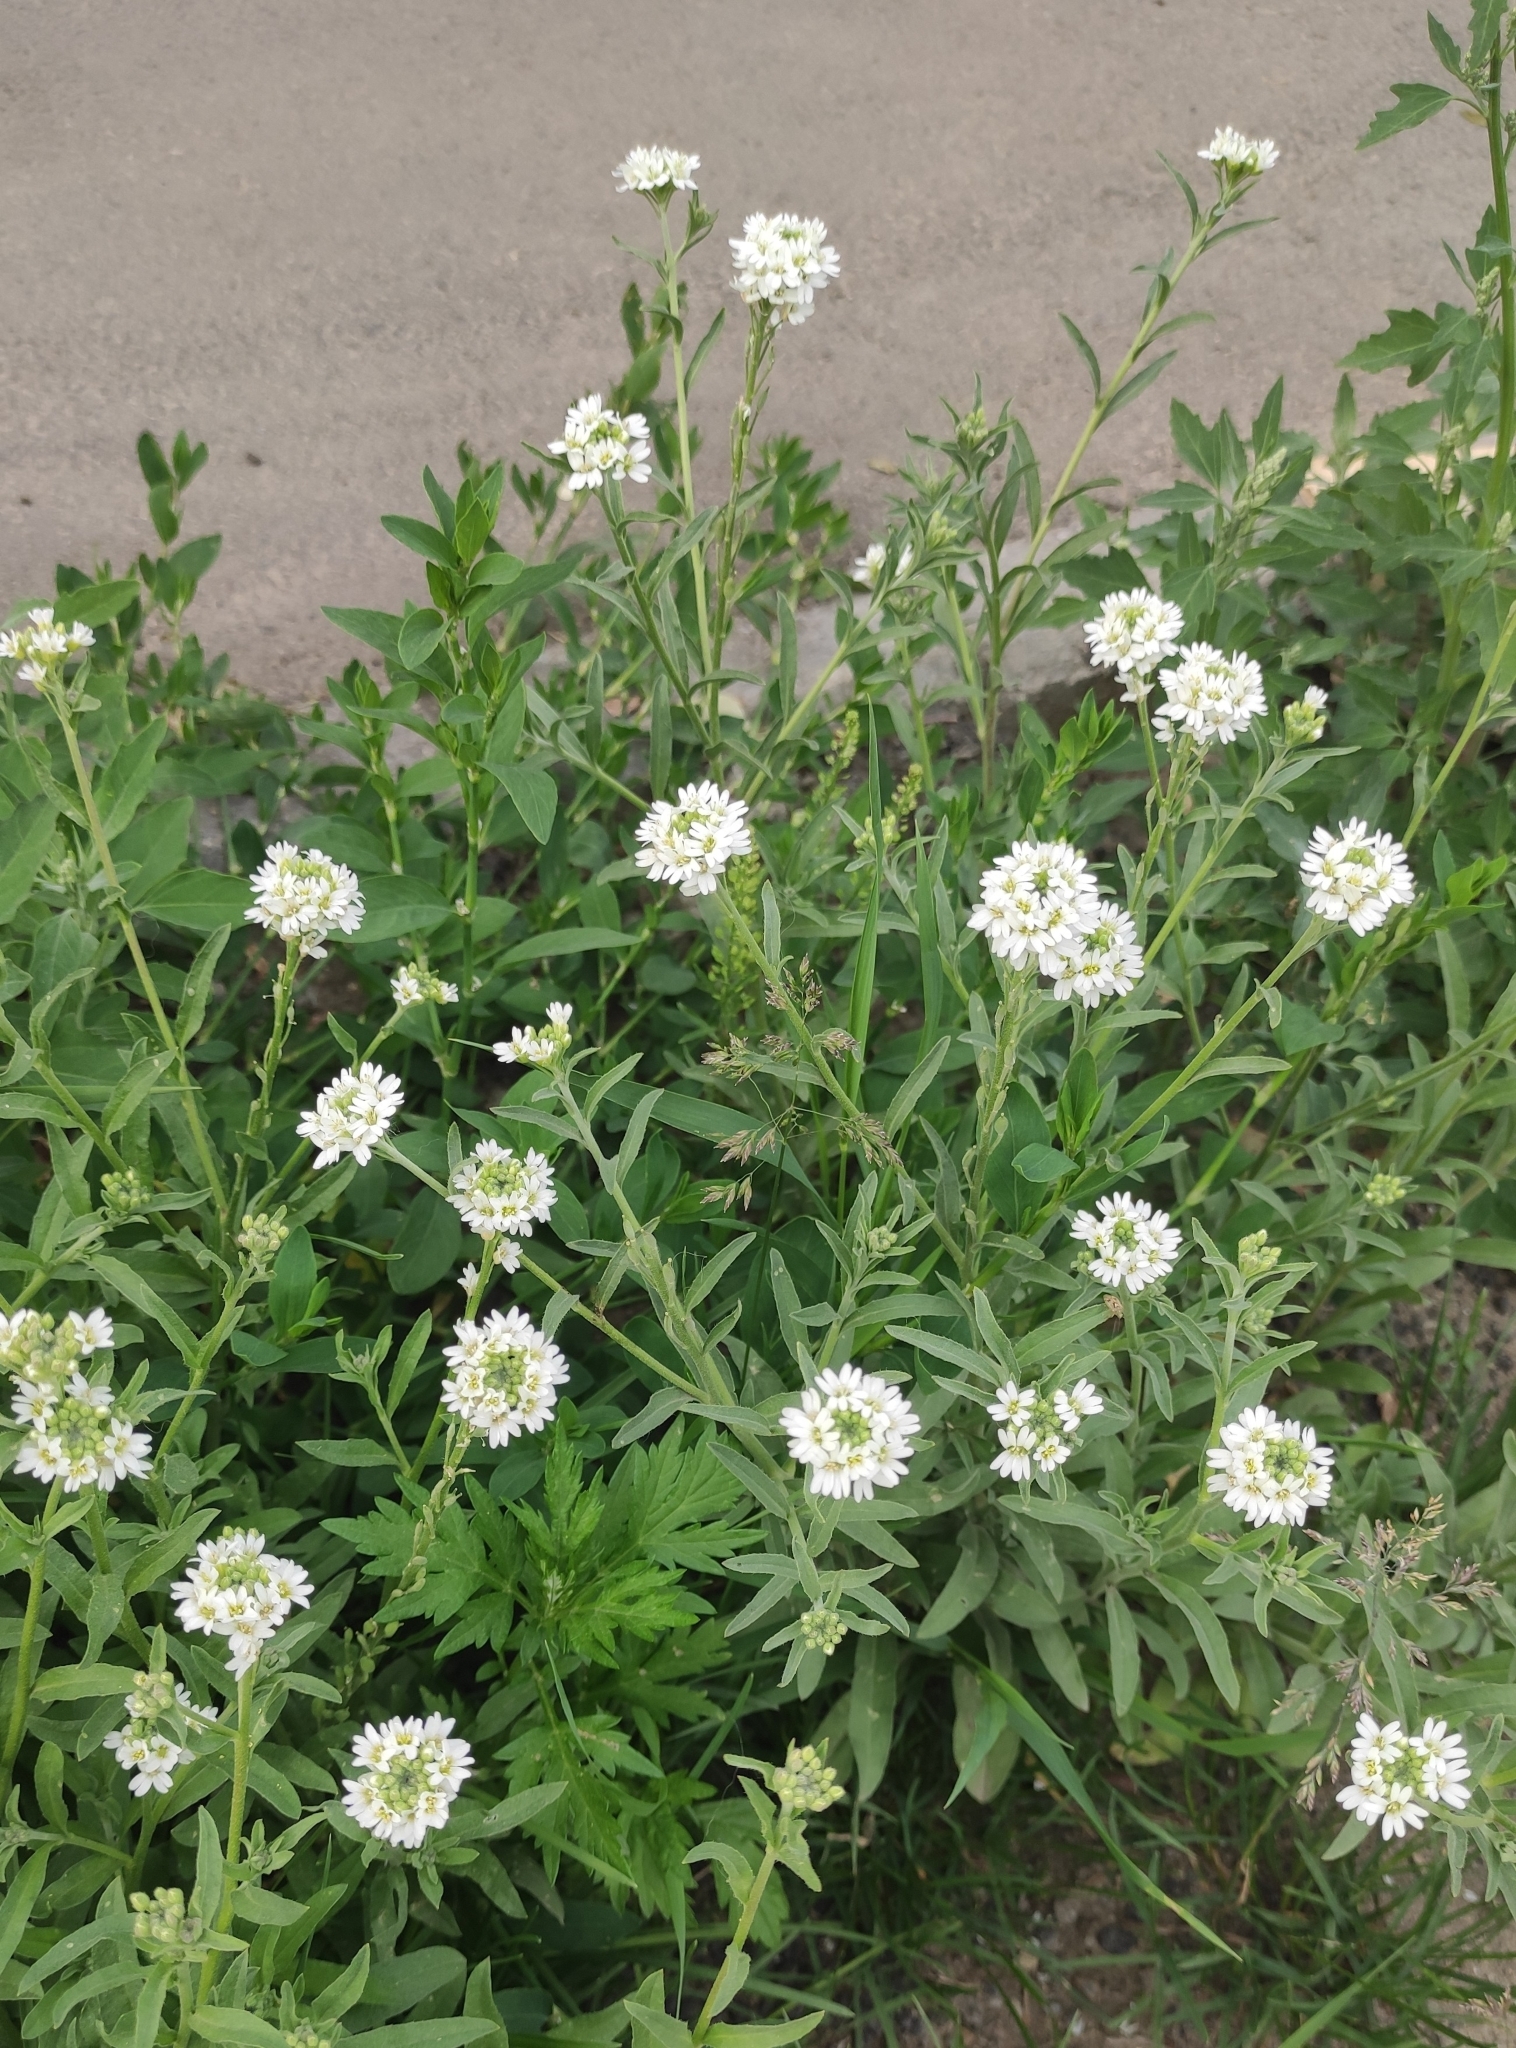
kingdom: Plantae
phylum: Tracheophyta
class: Magnoliopsida
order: Brassicales
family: Brassicaceae
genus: Berteroa
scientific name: Berteroa incana
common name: Hoary alison
